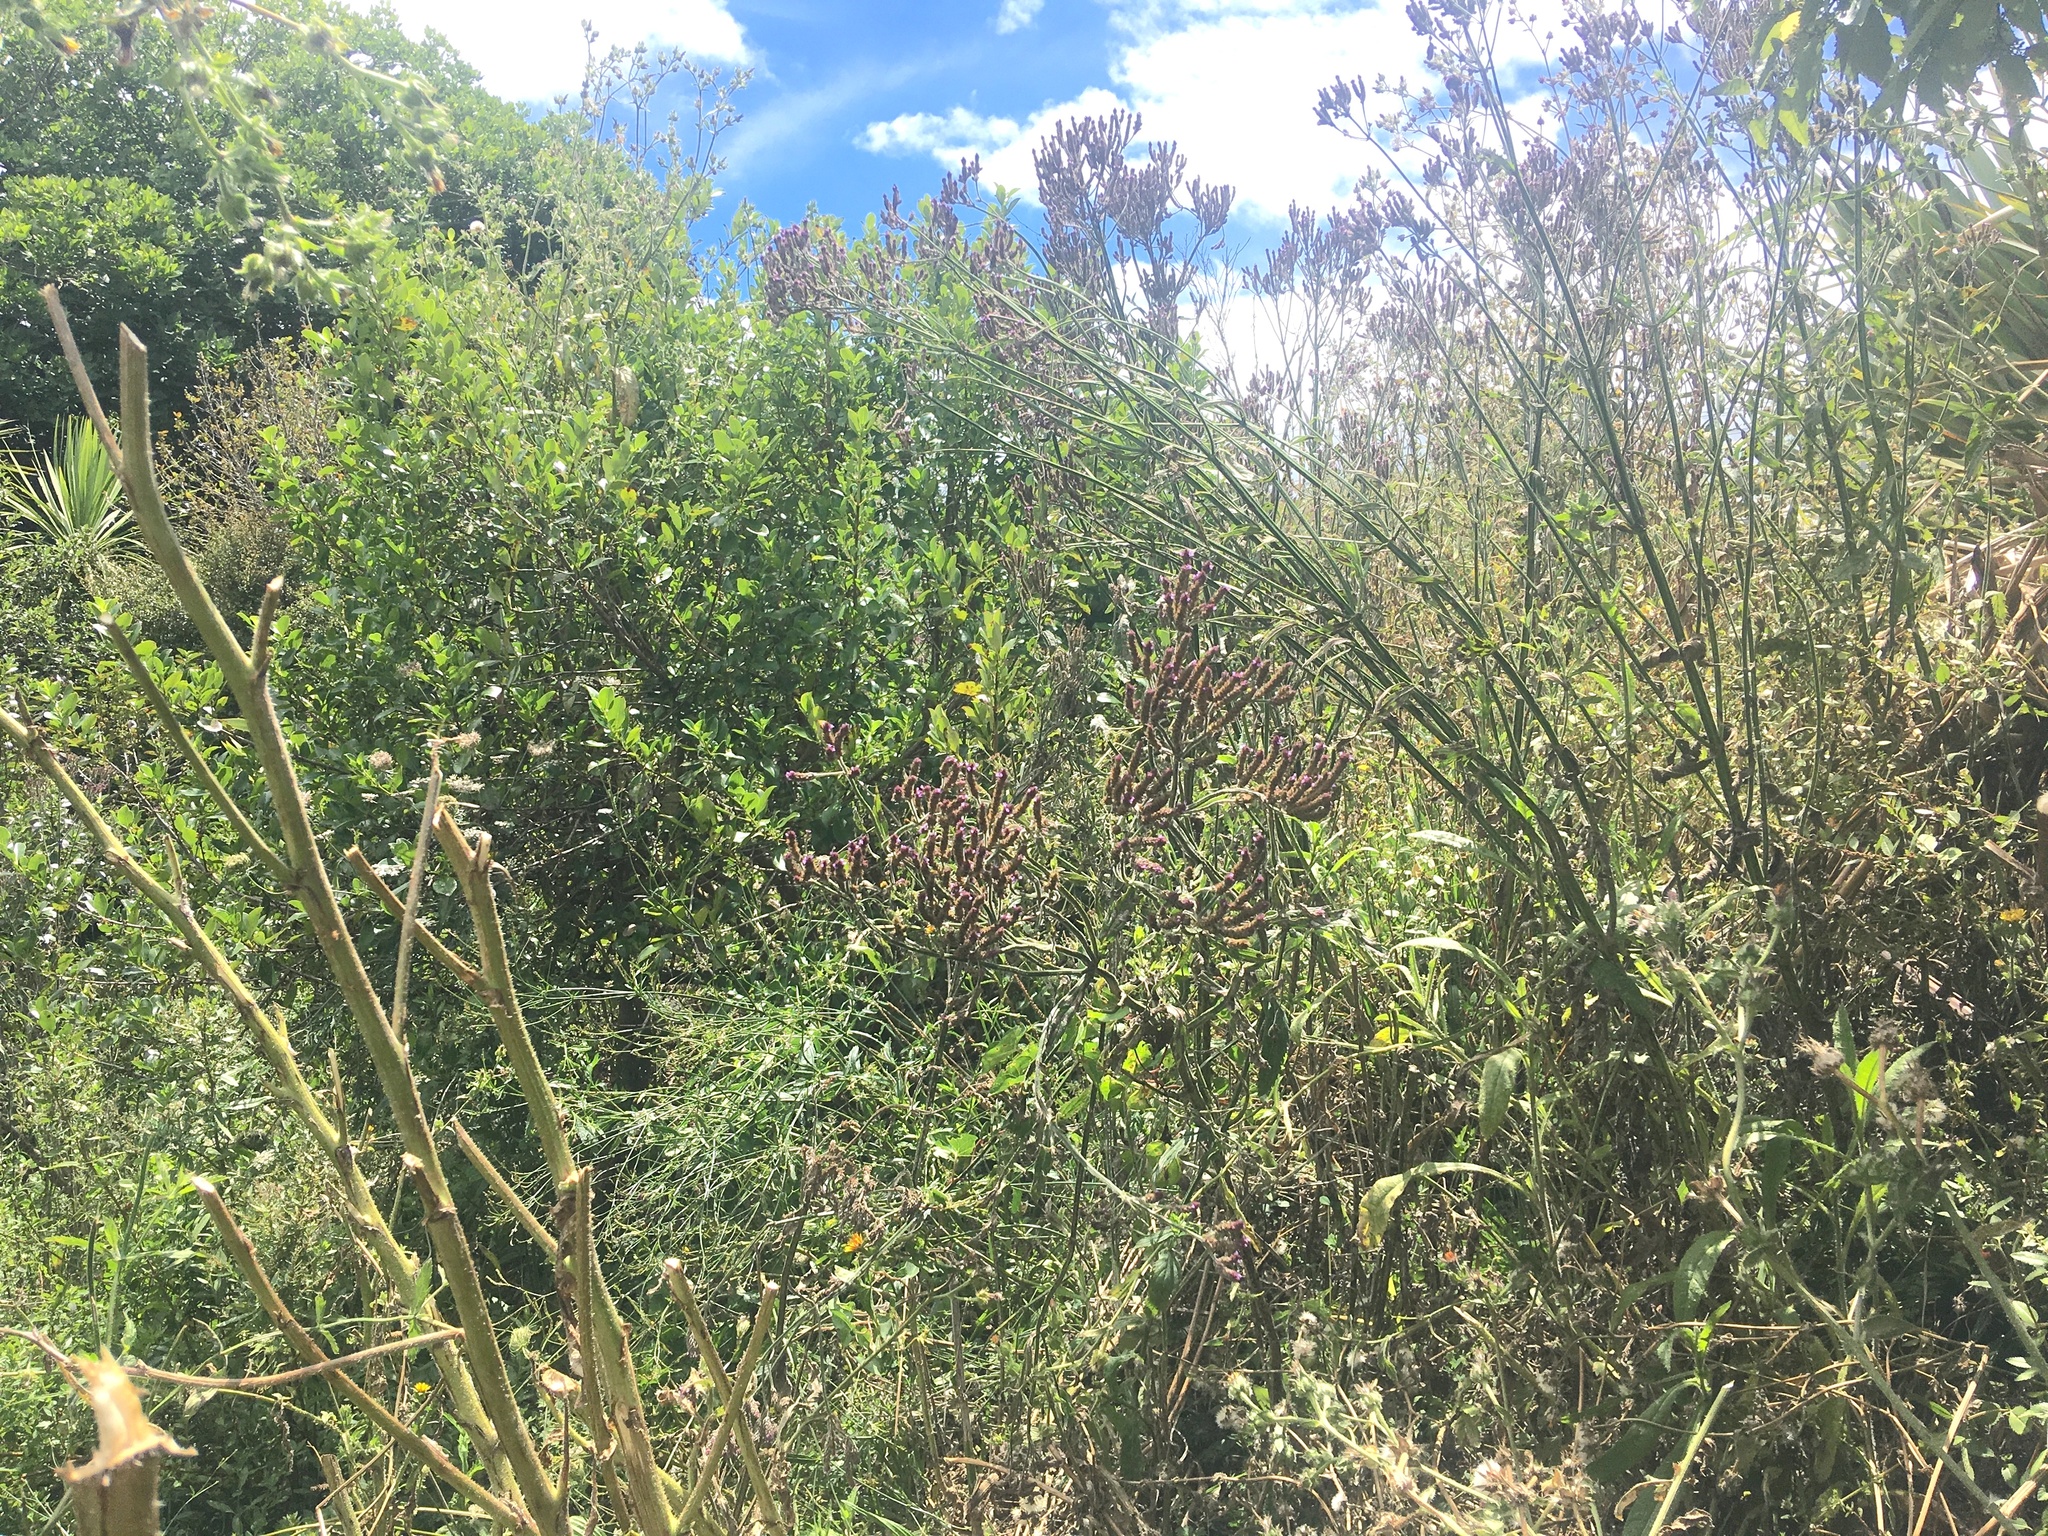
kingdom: Plantae
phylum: Tracheophyta
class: Magnoliopsida
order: Lamiales
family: Verbenaceae
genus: Verbena
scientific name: Verbena incompta
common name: Purpletop vervain
